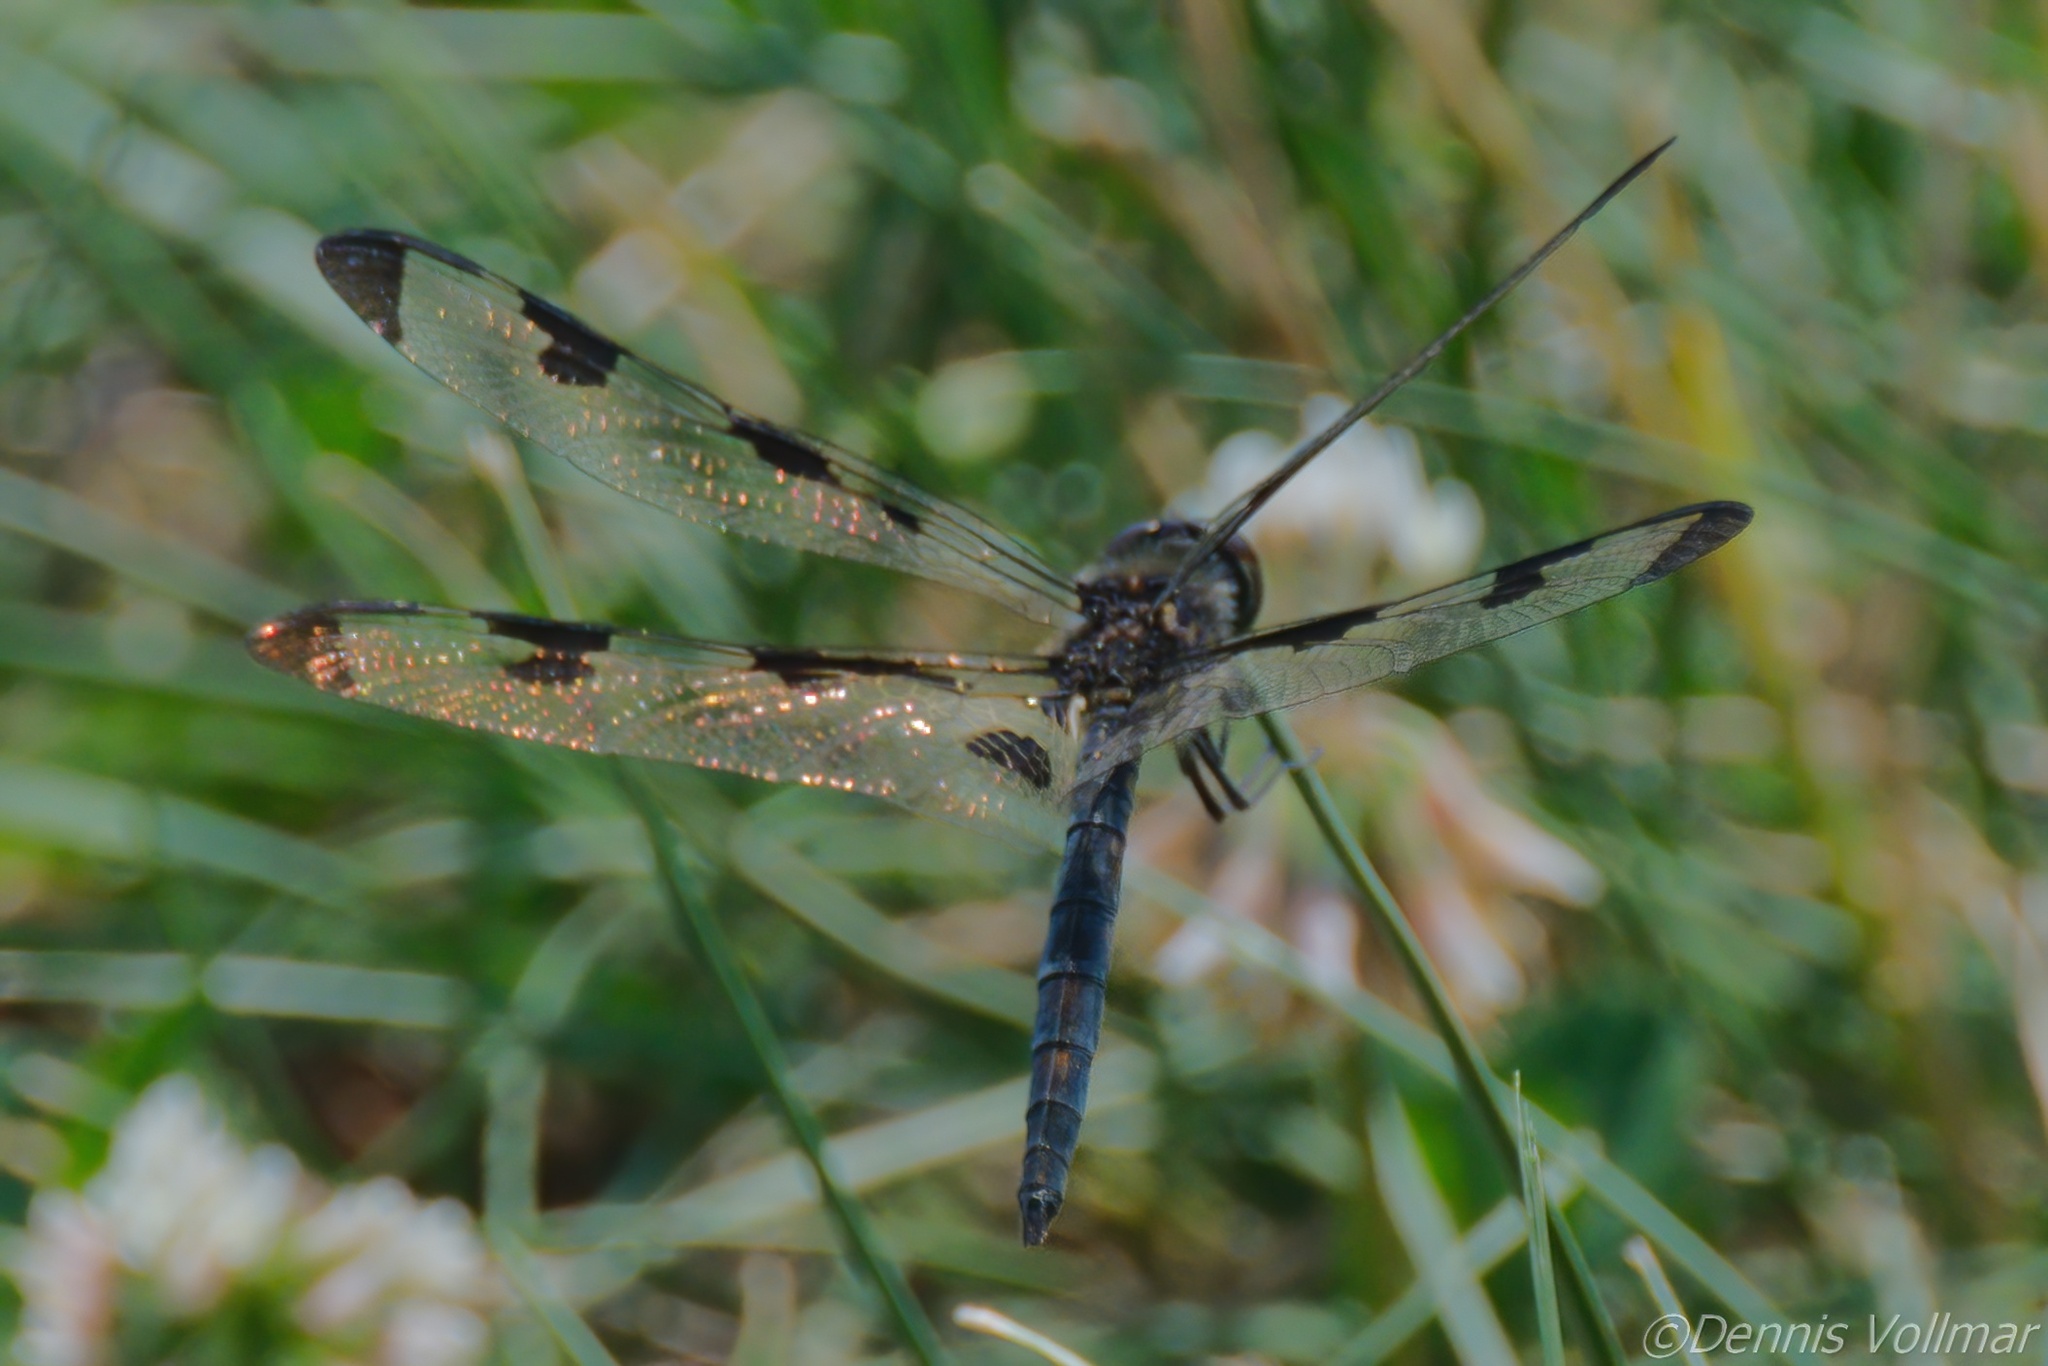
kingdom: Animalia
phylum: Arthropoda
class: Insecta
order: Odonata
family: Libellulidae
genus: Celithemis
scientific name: Celithemis fasciata
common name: Banded pennant
